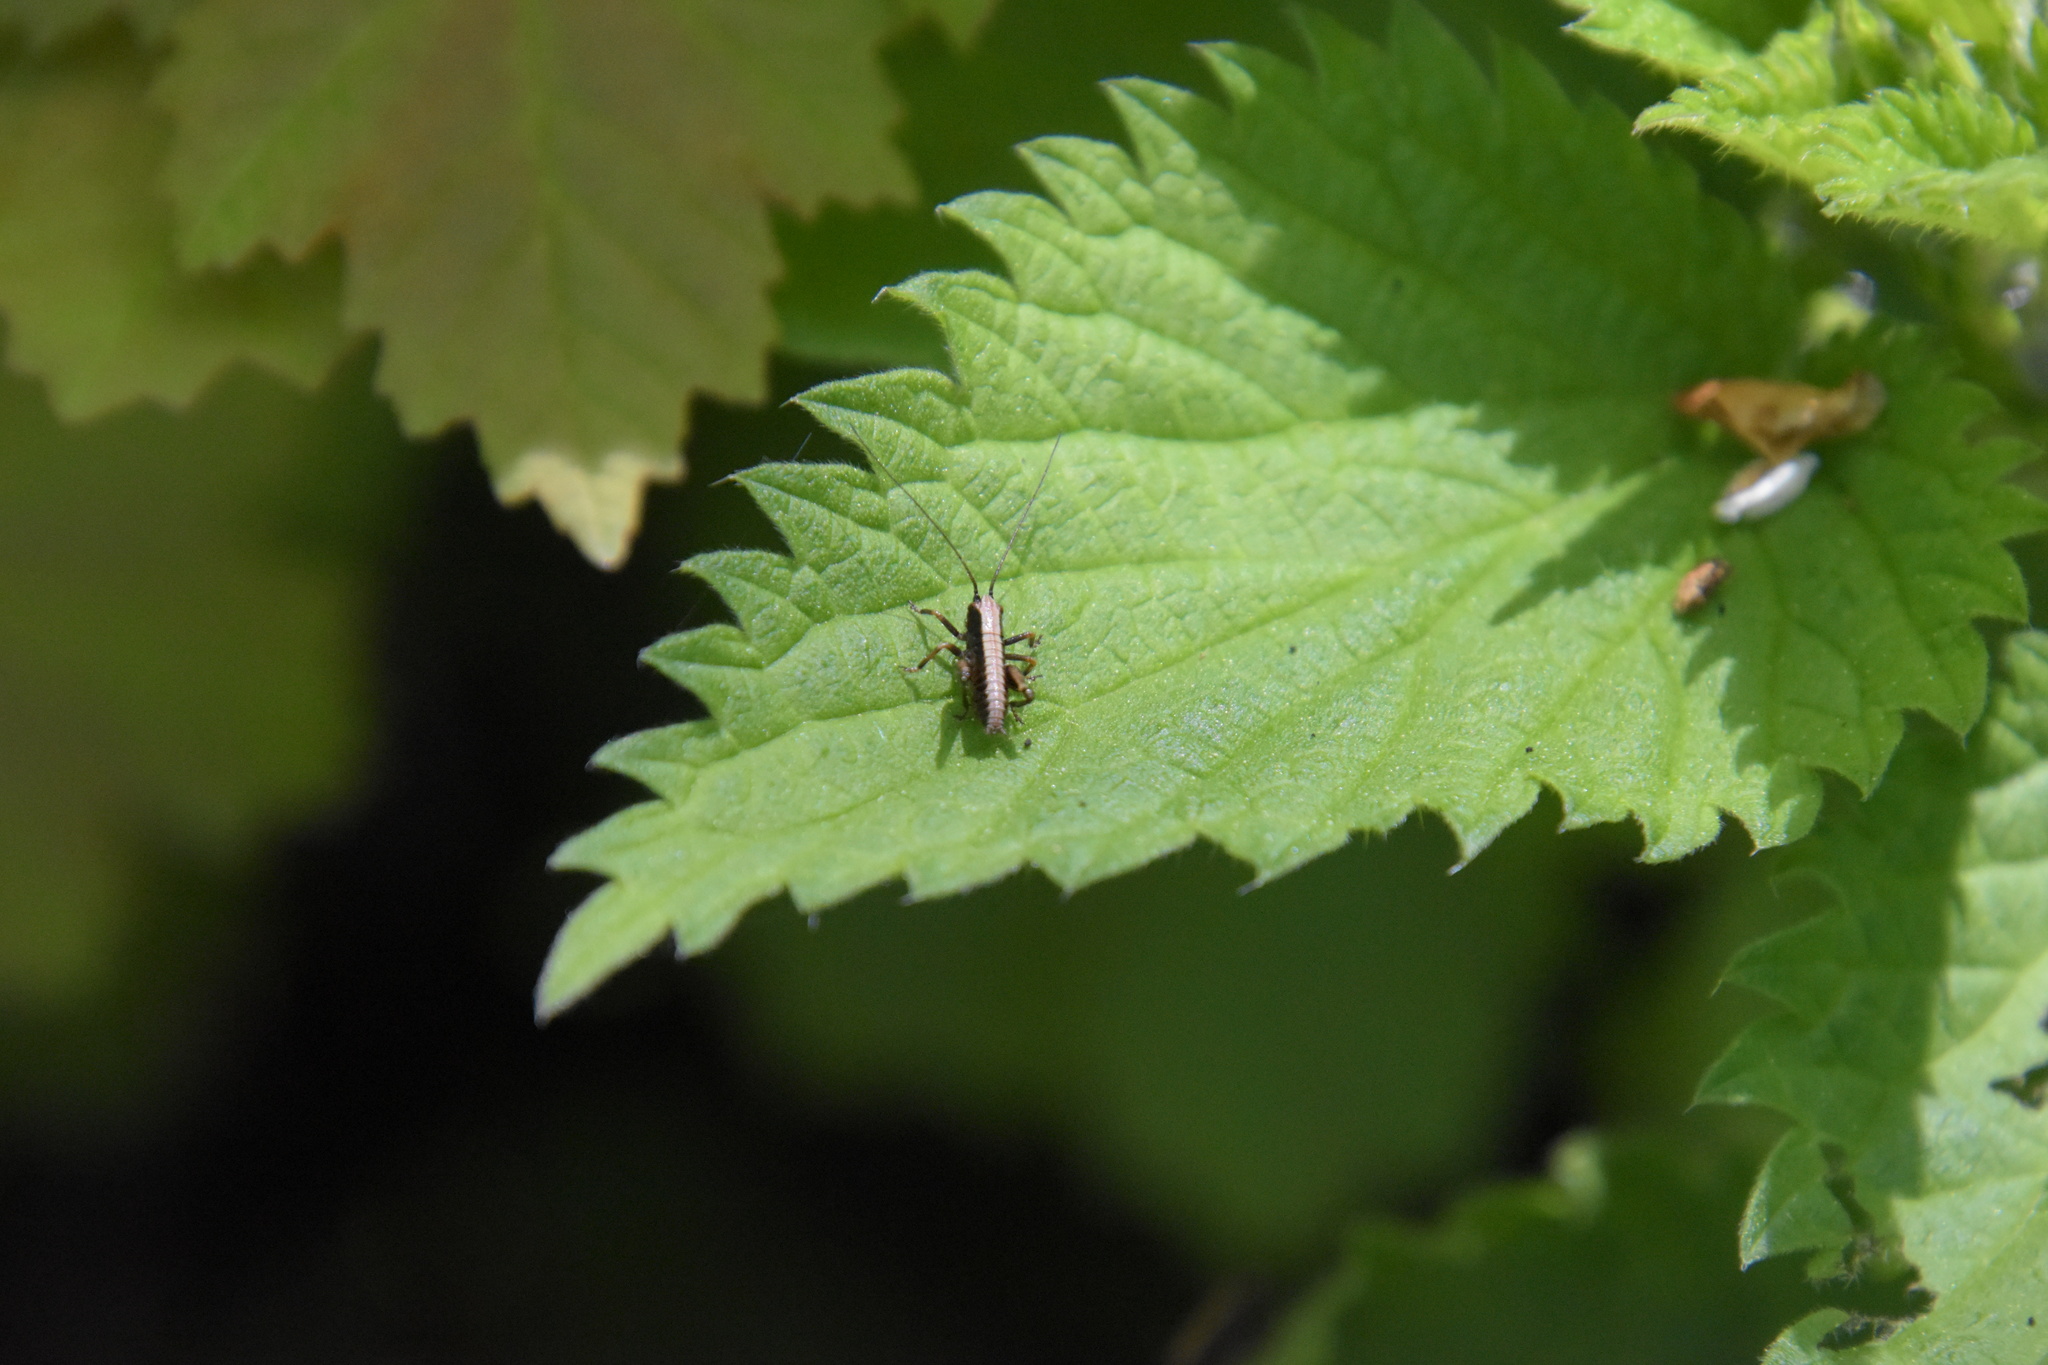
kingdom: Animalia
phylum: Arthropoda
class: Insecta
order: Orthoptera
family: Tettigoniidae
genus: Pholidoptera
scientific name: Pholidoptera griseoaptera
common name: Dark bush-cricket
